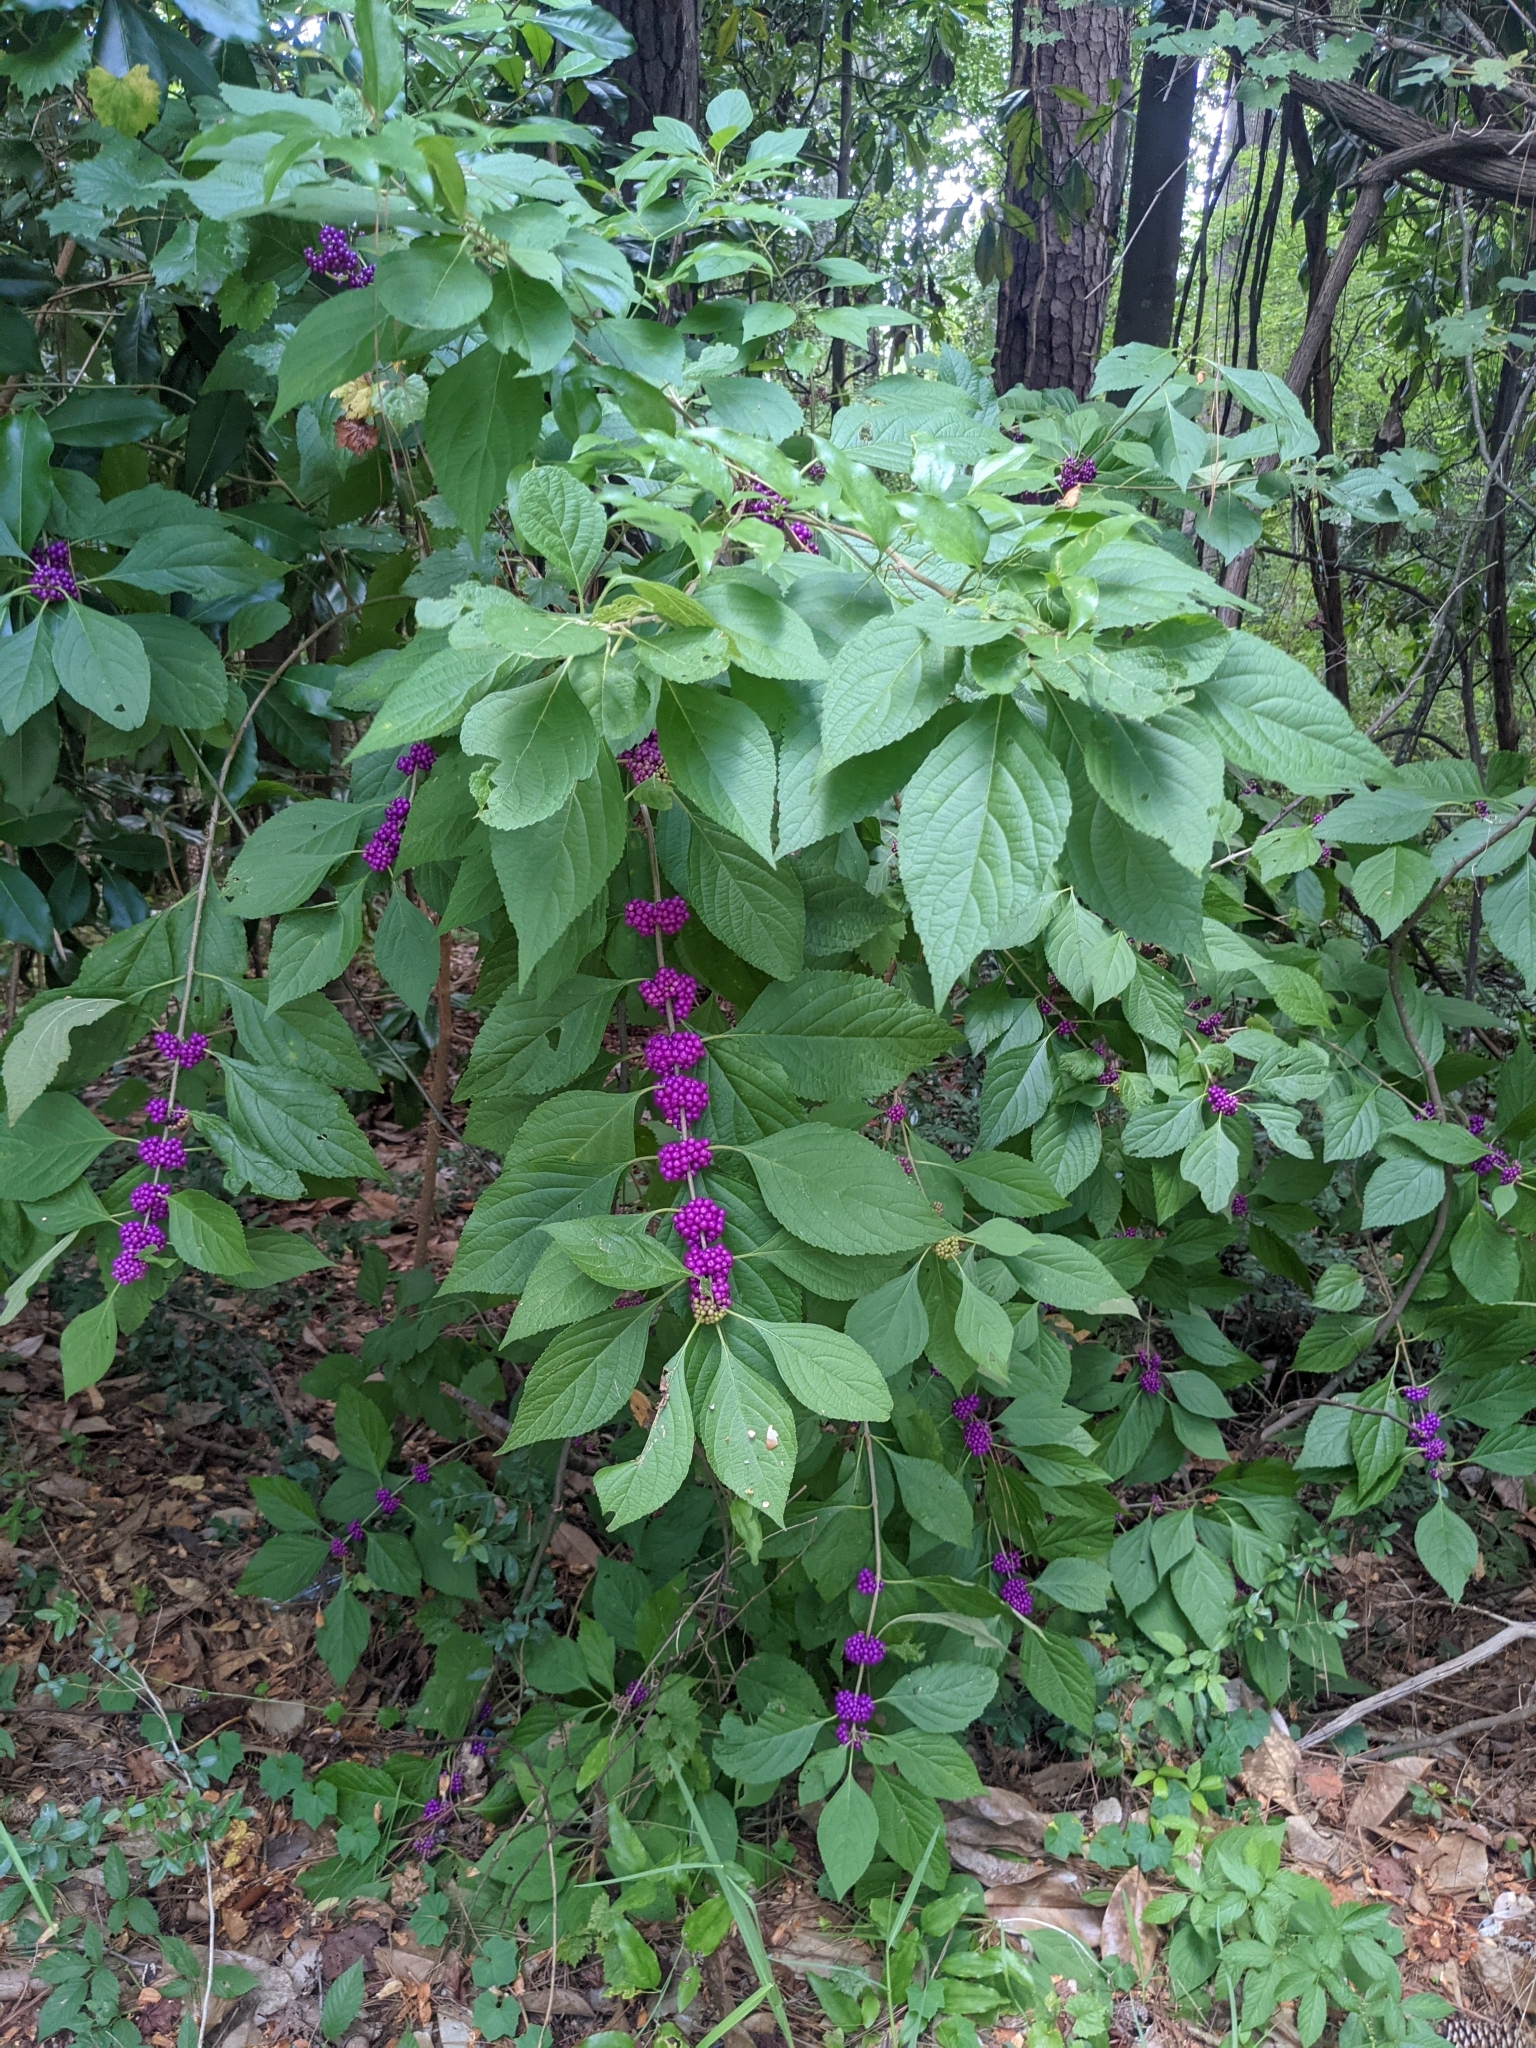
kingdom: Plantae
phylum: Tracheophyta
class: Magnoliopsida
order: Lamiales
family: Lamiaceae
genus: Callicarpa
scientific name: Callicarpa americana
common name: American beautyberry
